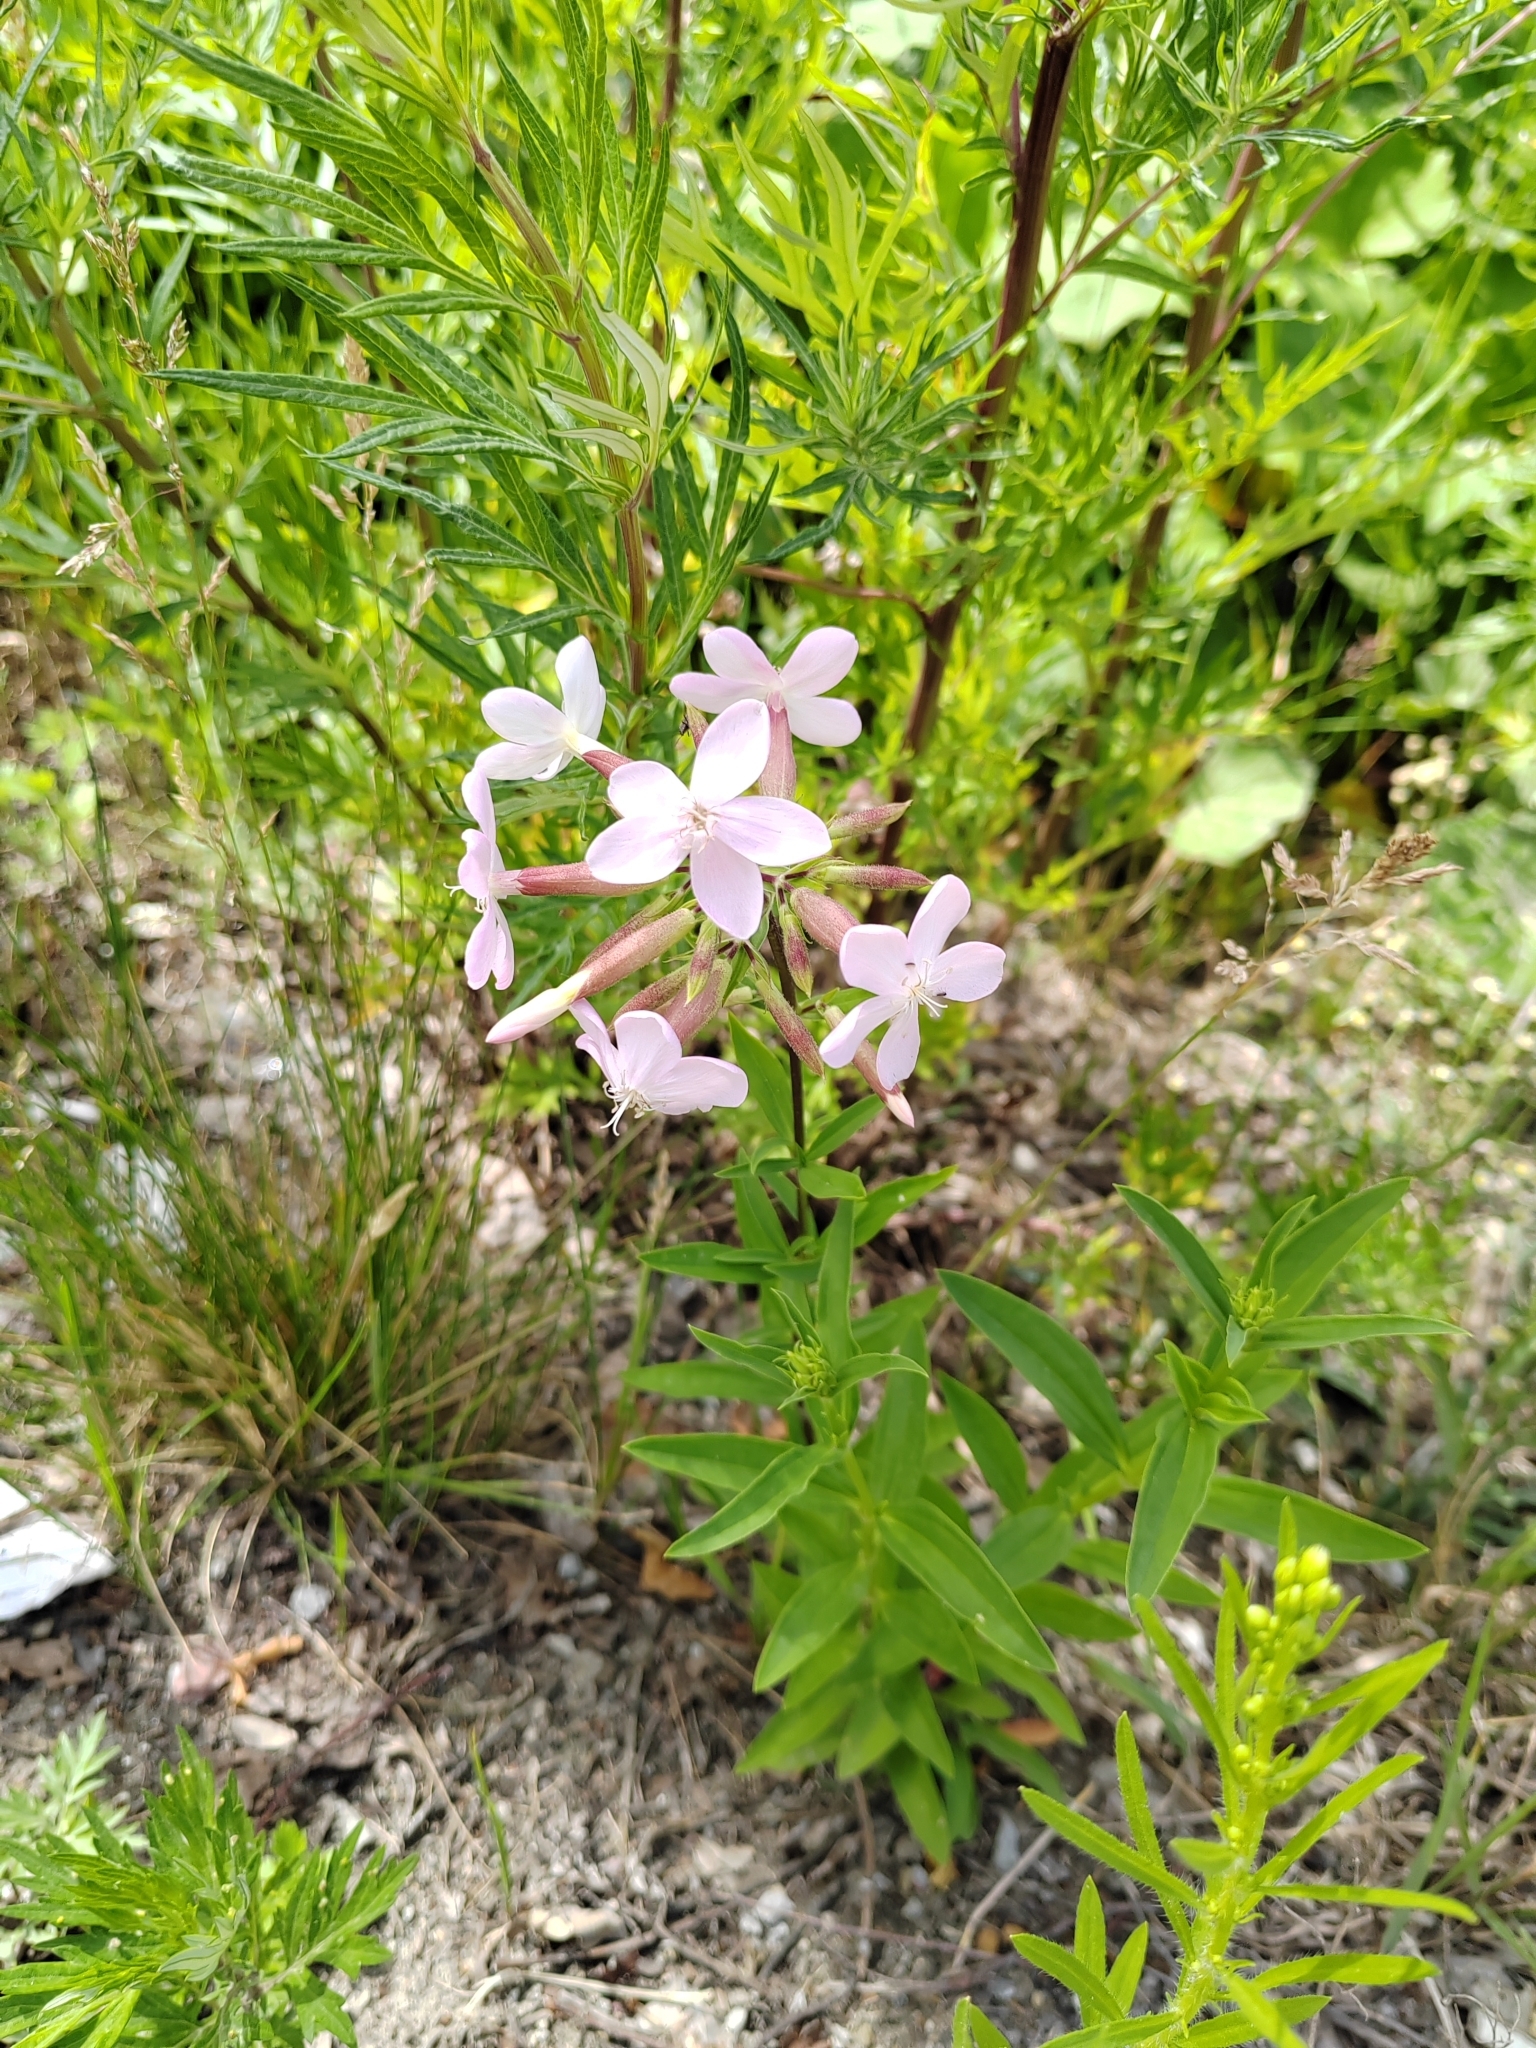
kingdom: Plantae
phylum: Tracheophyta
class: Magnoliopsida
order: Caryophyllales
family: Caryophyllaceae
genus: Saponaria
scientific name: Saponaria officinalis
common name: Soapwort
